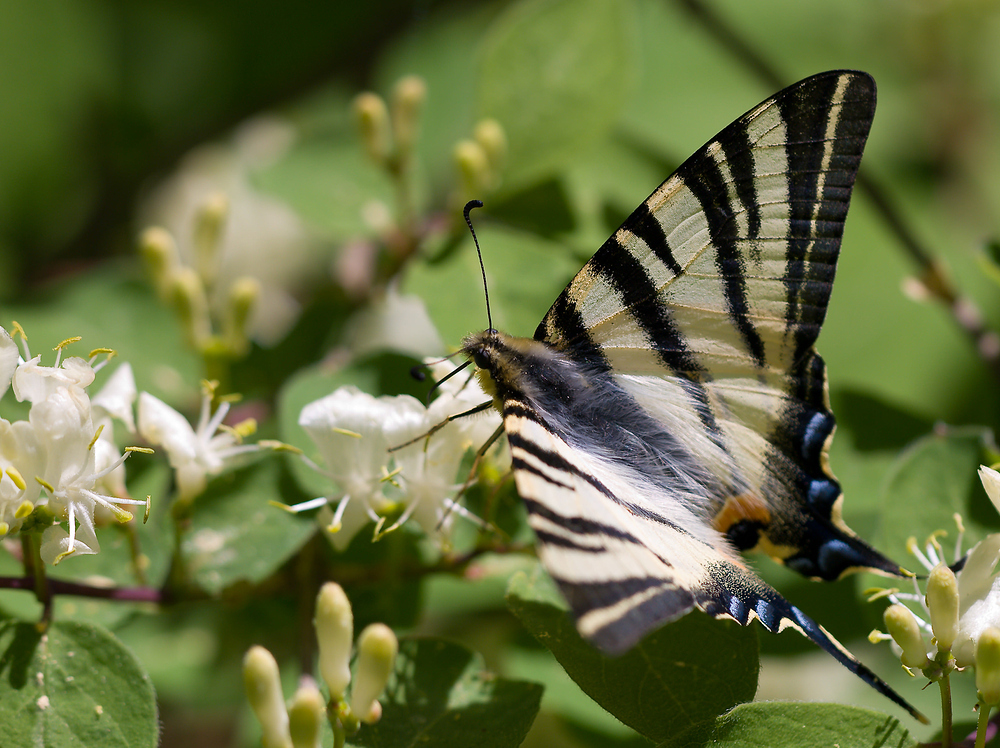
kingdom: Animalia
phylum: Arthropoda
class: Insecta
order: Lepidoptera
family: Papilionidae
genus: Iphiclides
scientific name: Iphiclides podalirius
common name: Scarce swallowtail
